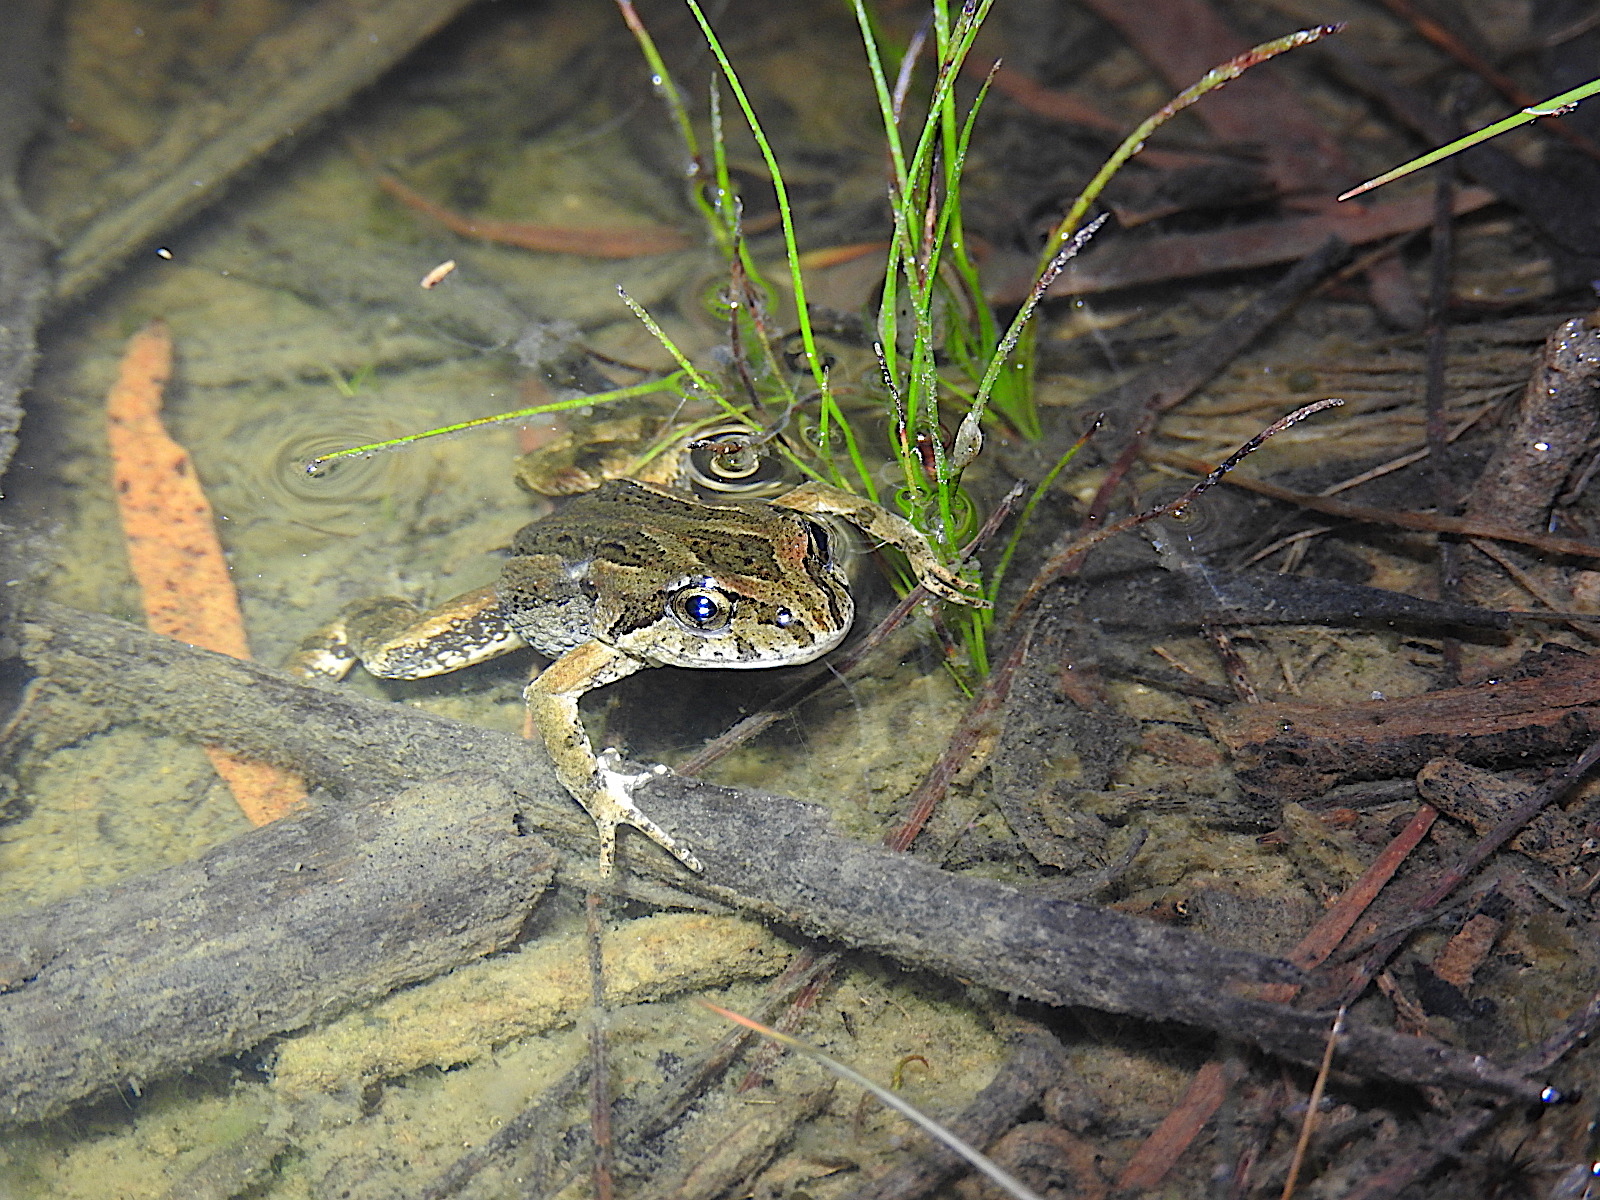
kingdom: Animalia
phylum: Chordata
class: Amphibia
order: Anura
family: Myobatrachidae
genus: Crinia
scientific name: Crinia signifera
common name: Brown froglet
